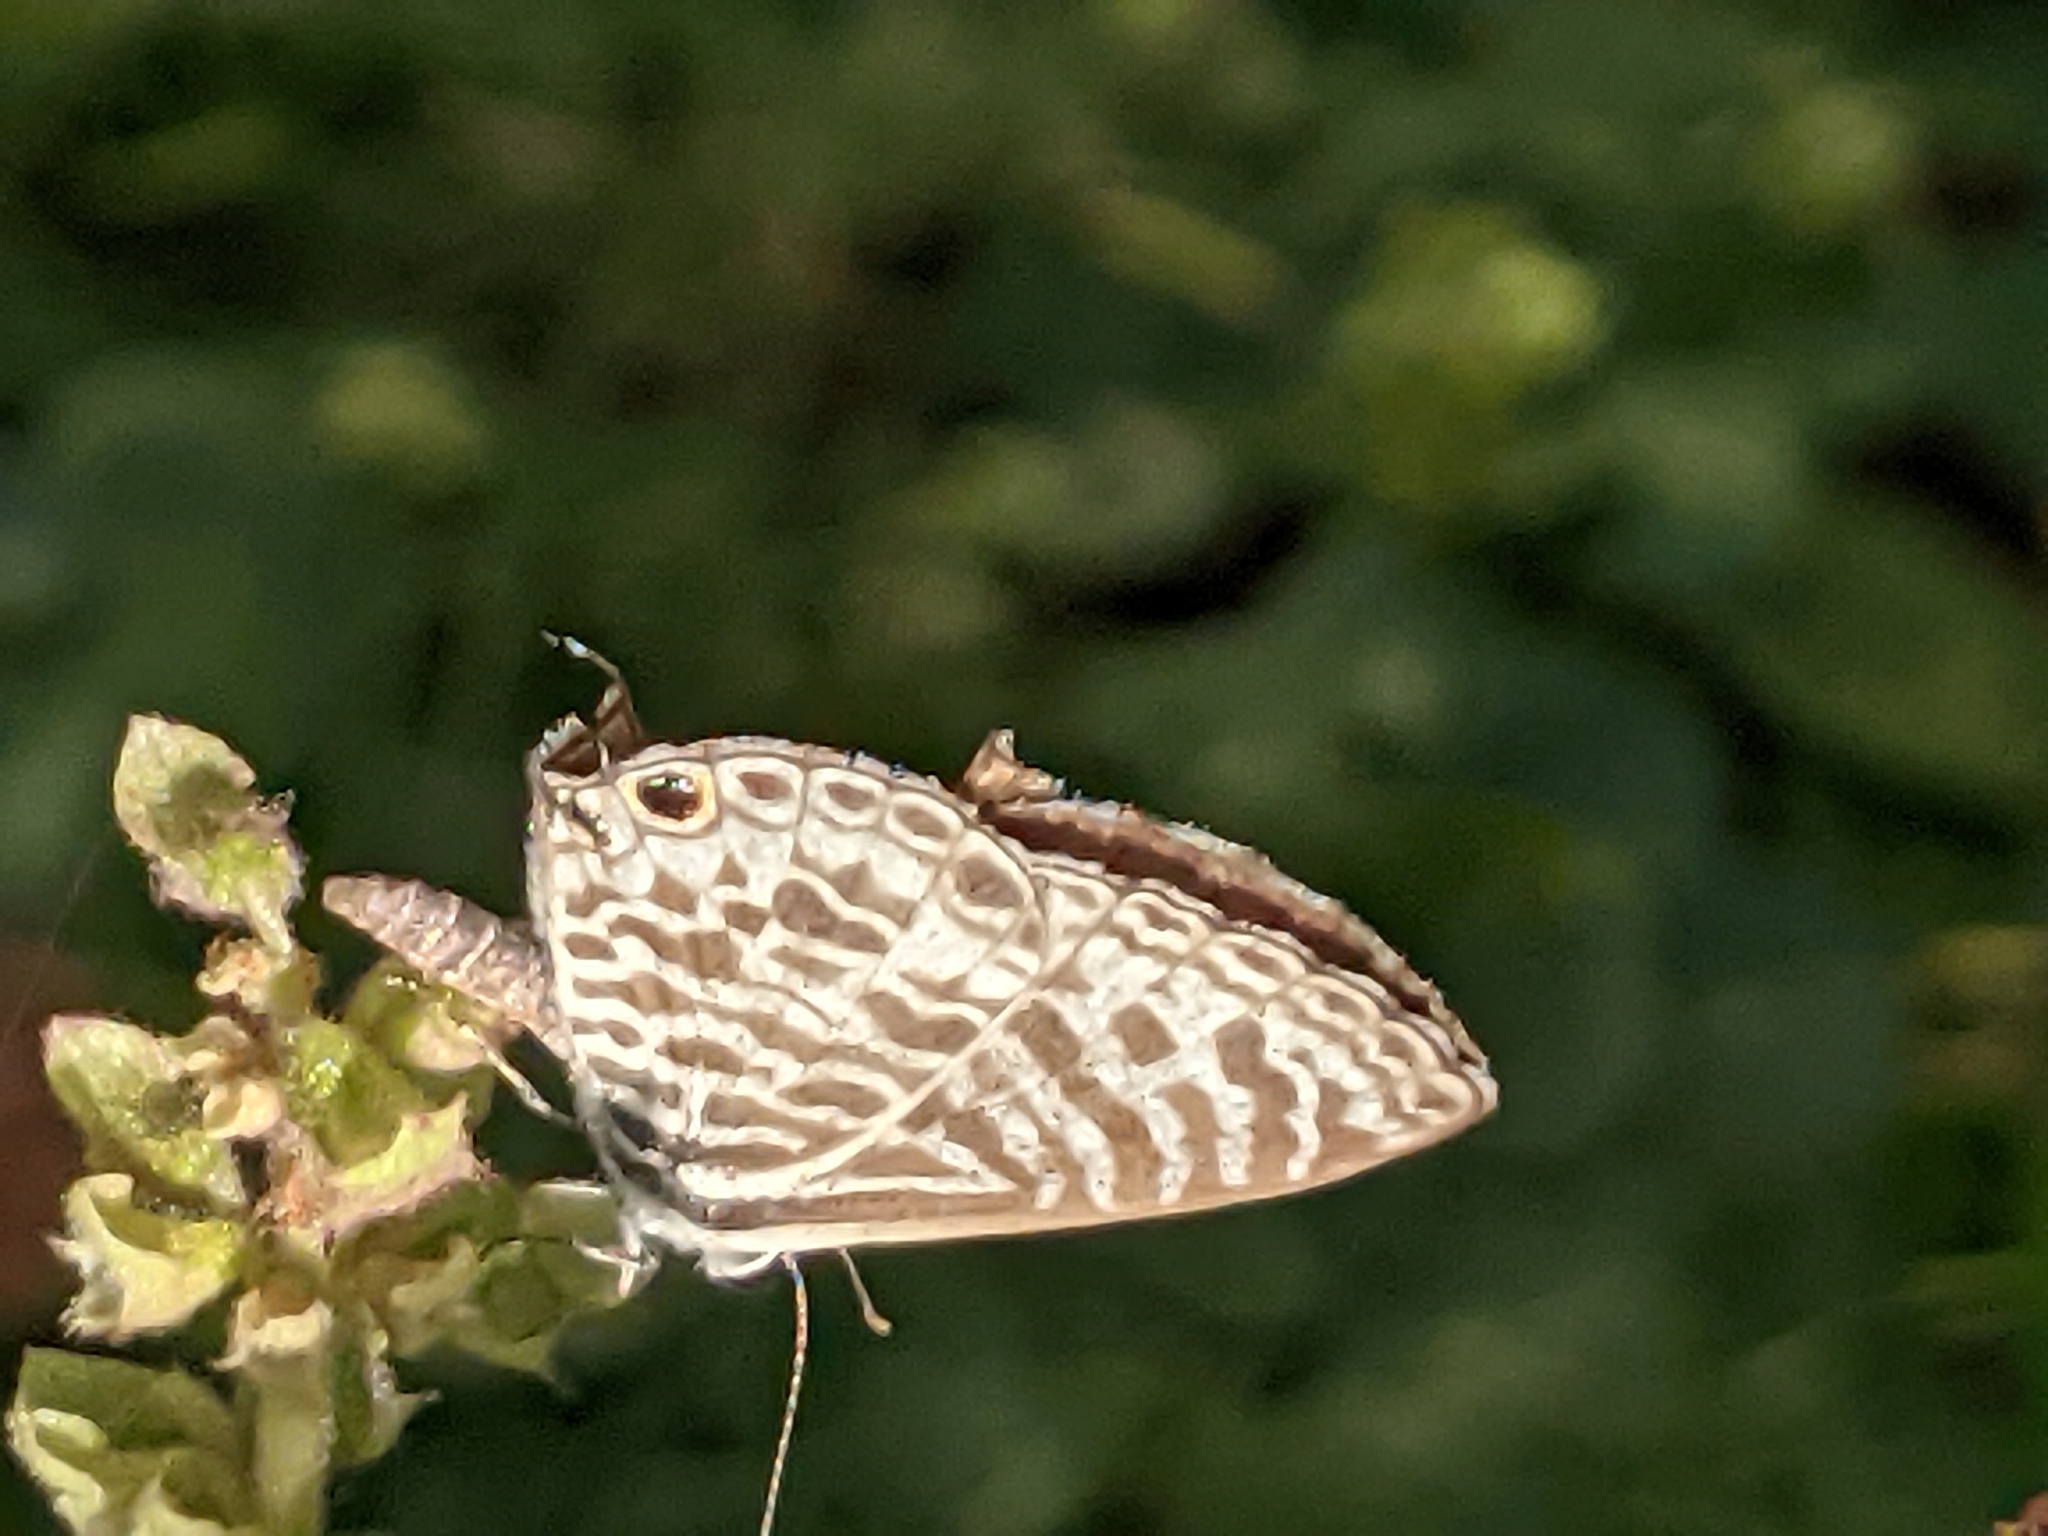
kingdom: Animalia
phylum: Arthropoda
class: Insecta
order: Lepidoptera
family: Lycaenidae
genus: Leptotes
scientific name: Leptotes plinius
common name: Zebra blue
